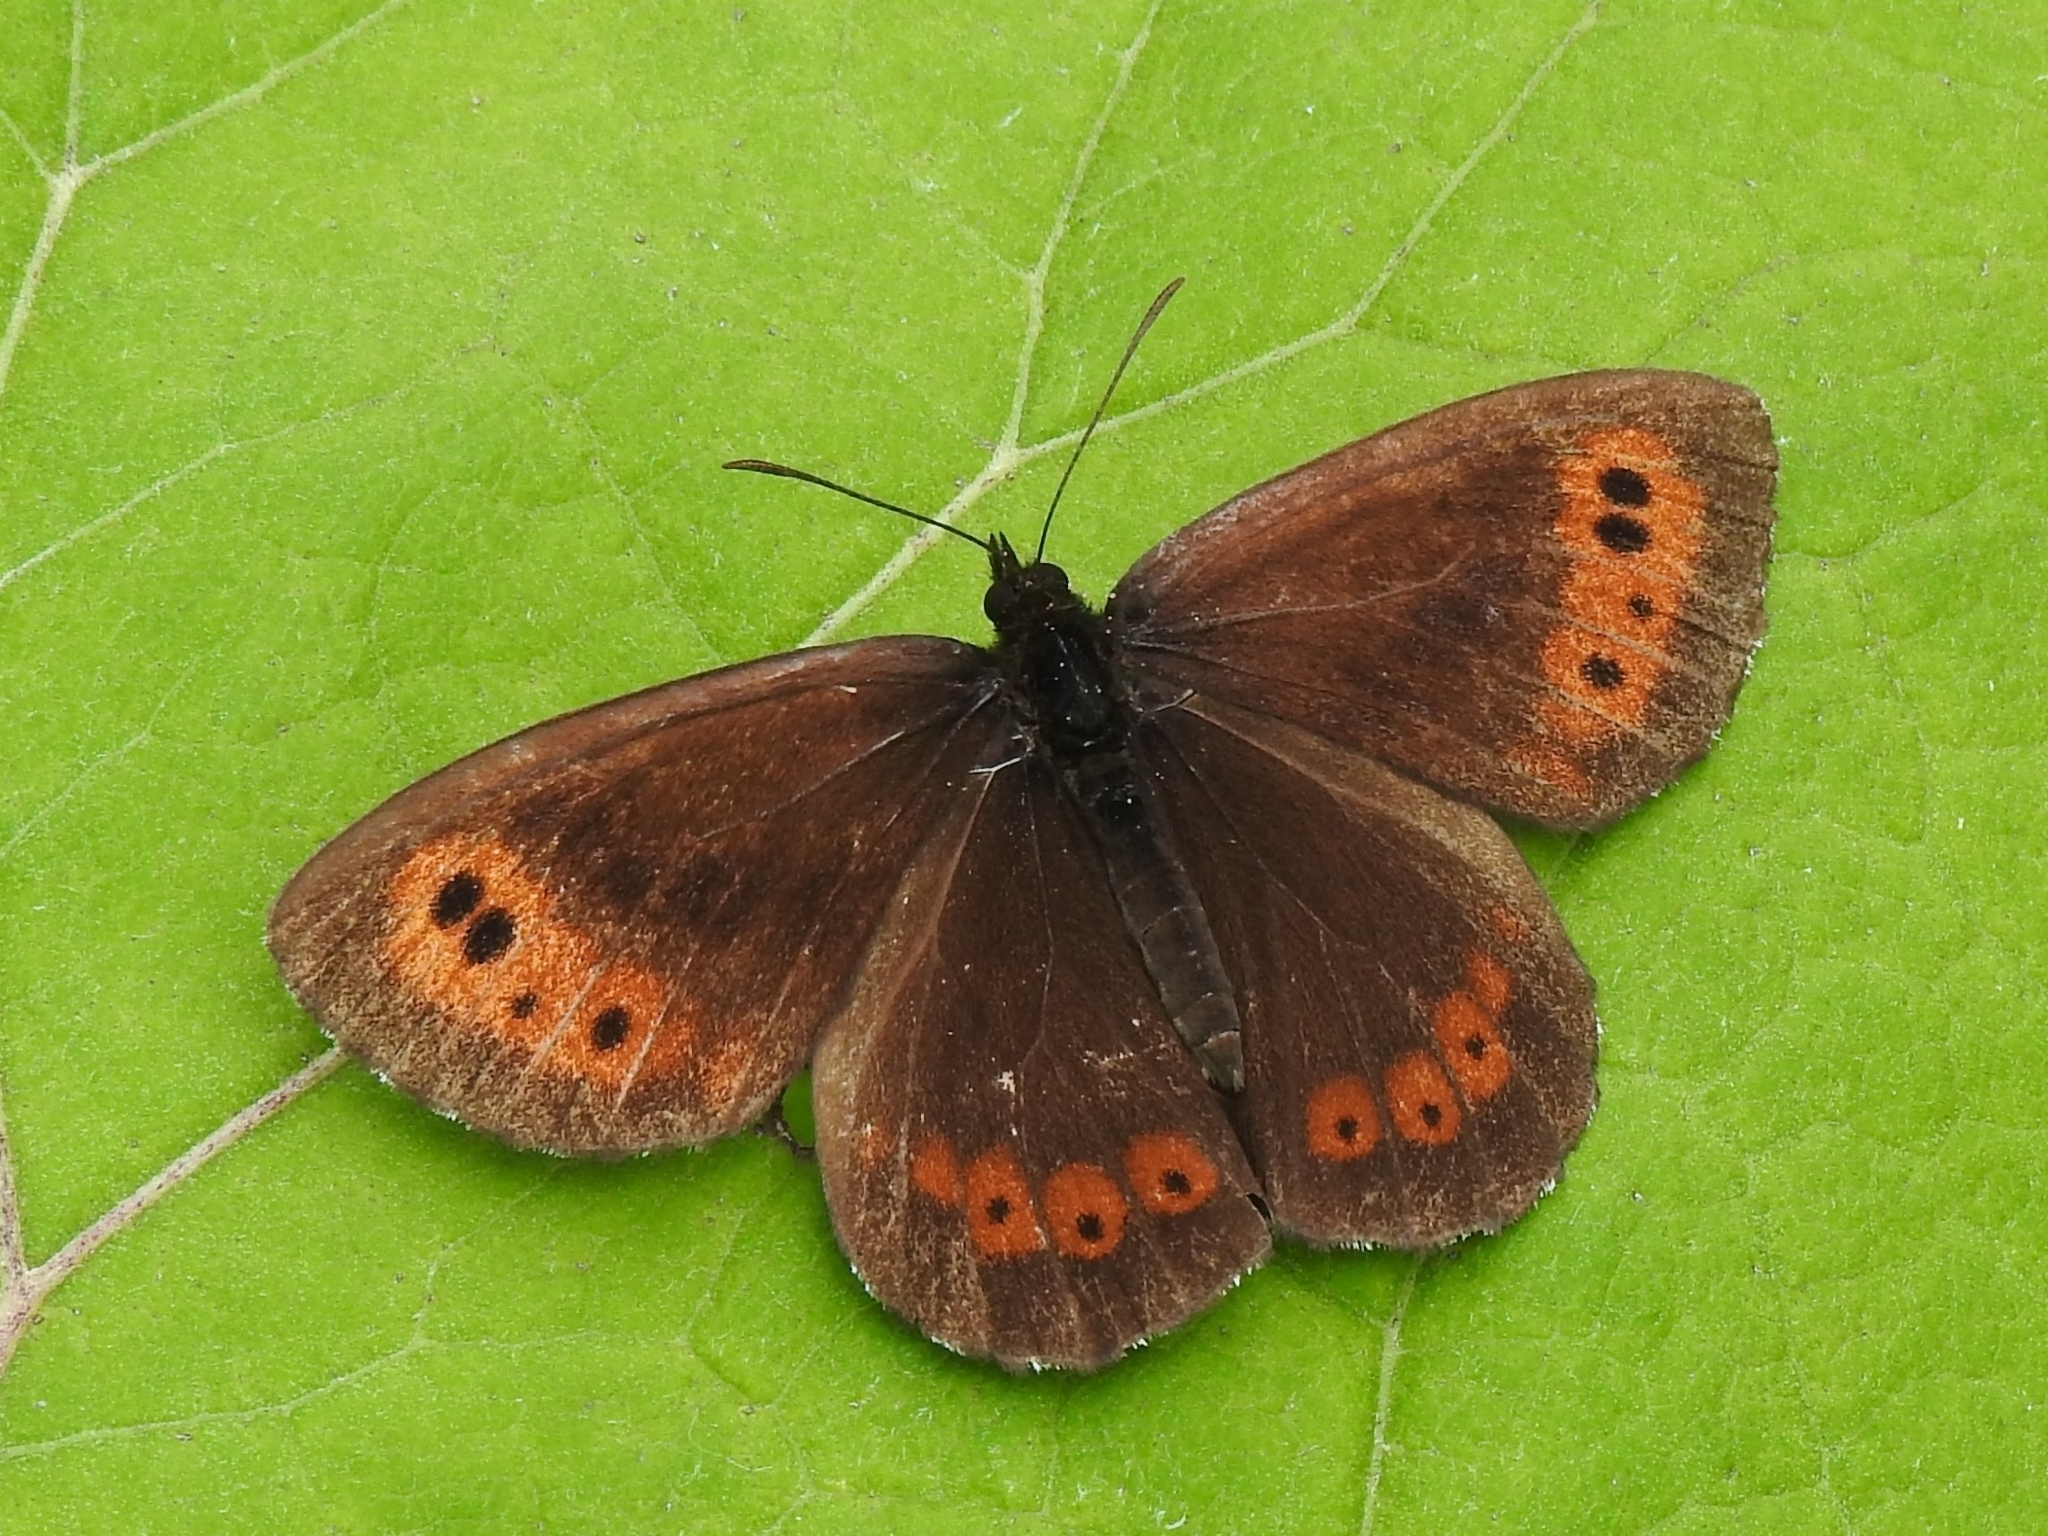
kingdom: Animalia
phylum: Arthropoda
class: Insecta
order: Lepidoptera
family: Nymphalidae
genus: Erebia
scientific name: Erebia ligea
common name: Arran brown
